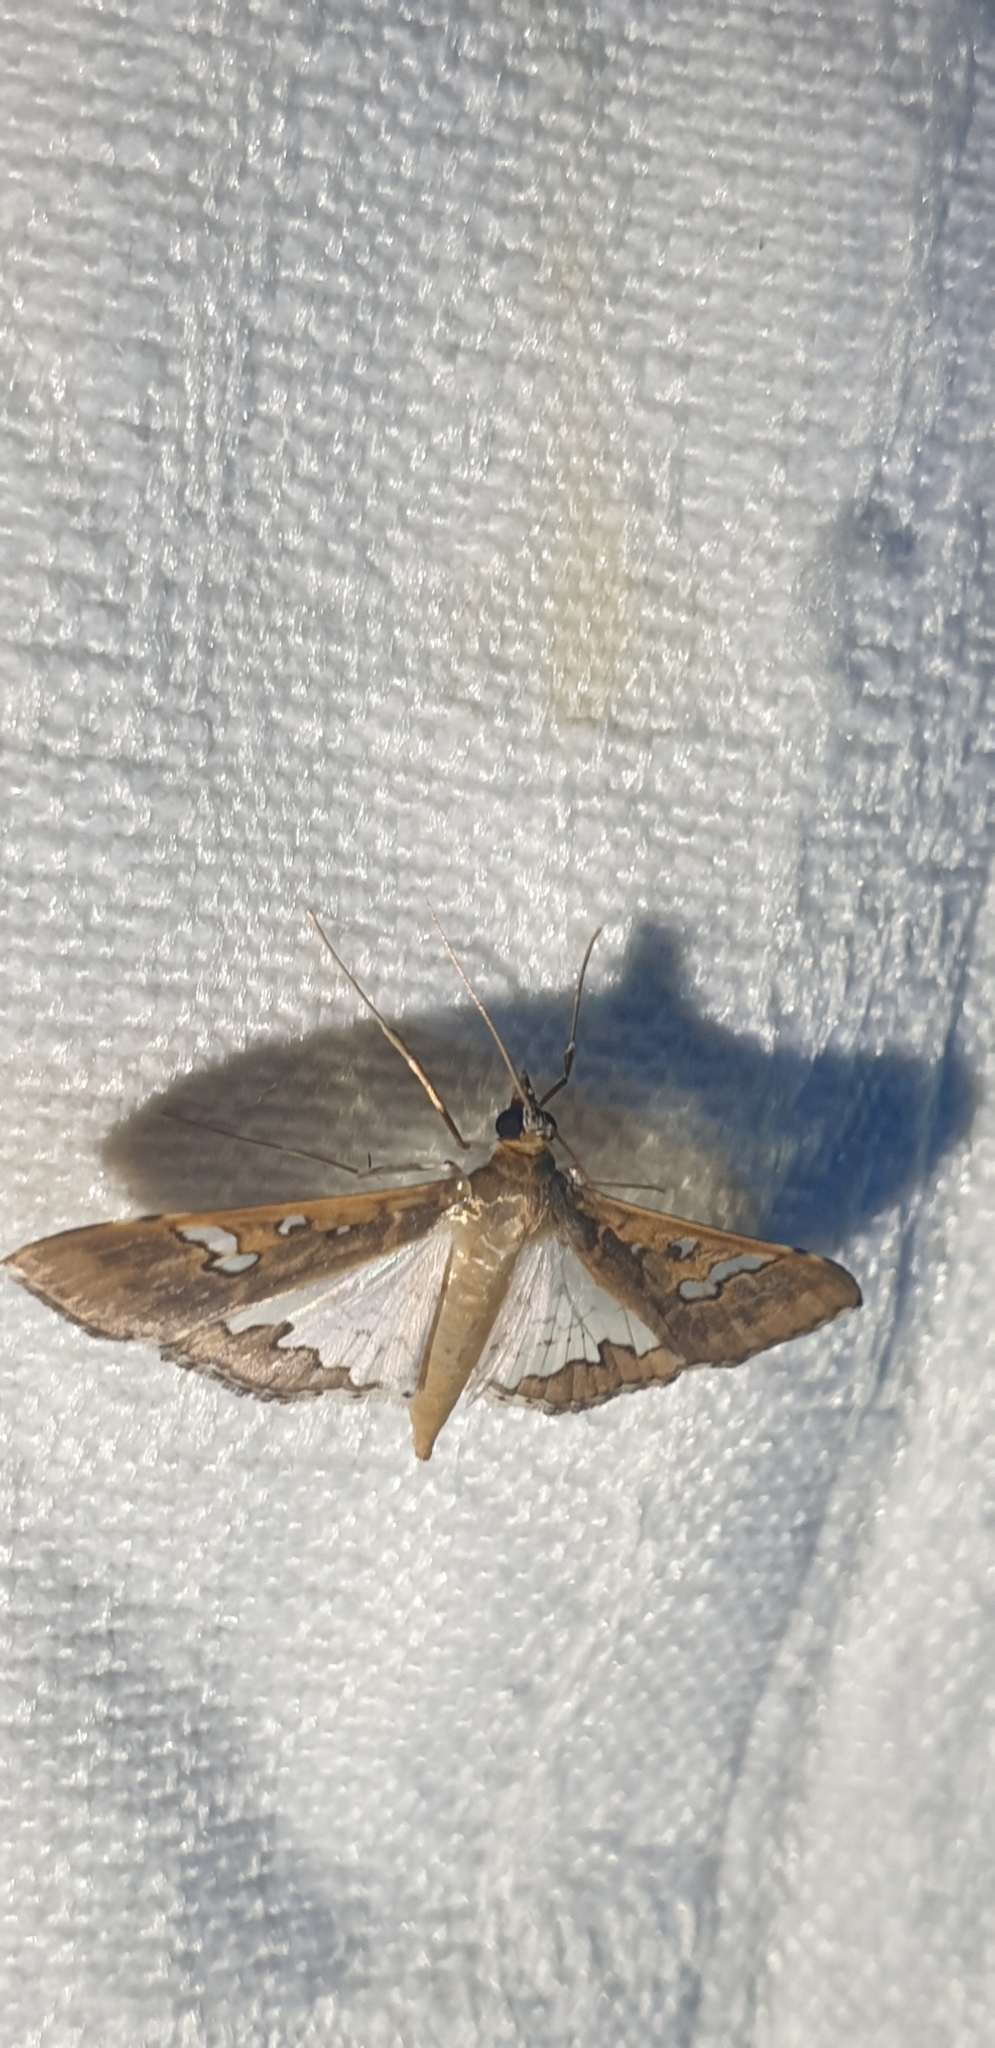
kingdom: Animalia
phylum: Arthropoda
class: Insecta
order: Lepidoptera
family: Crambidae
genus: Maruca
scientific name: Maruca vitrata
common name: Maruca pod borer
